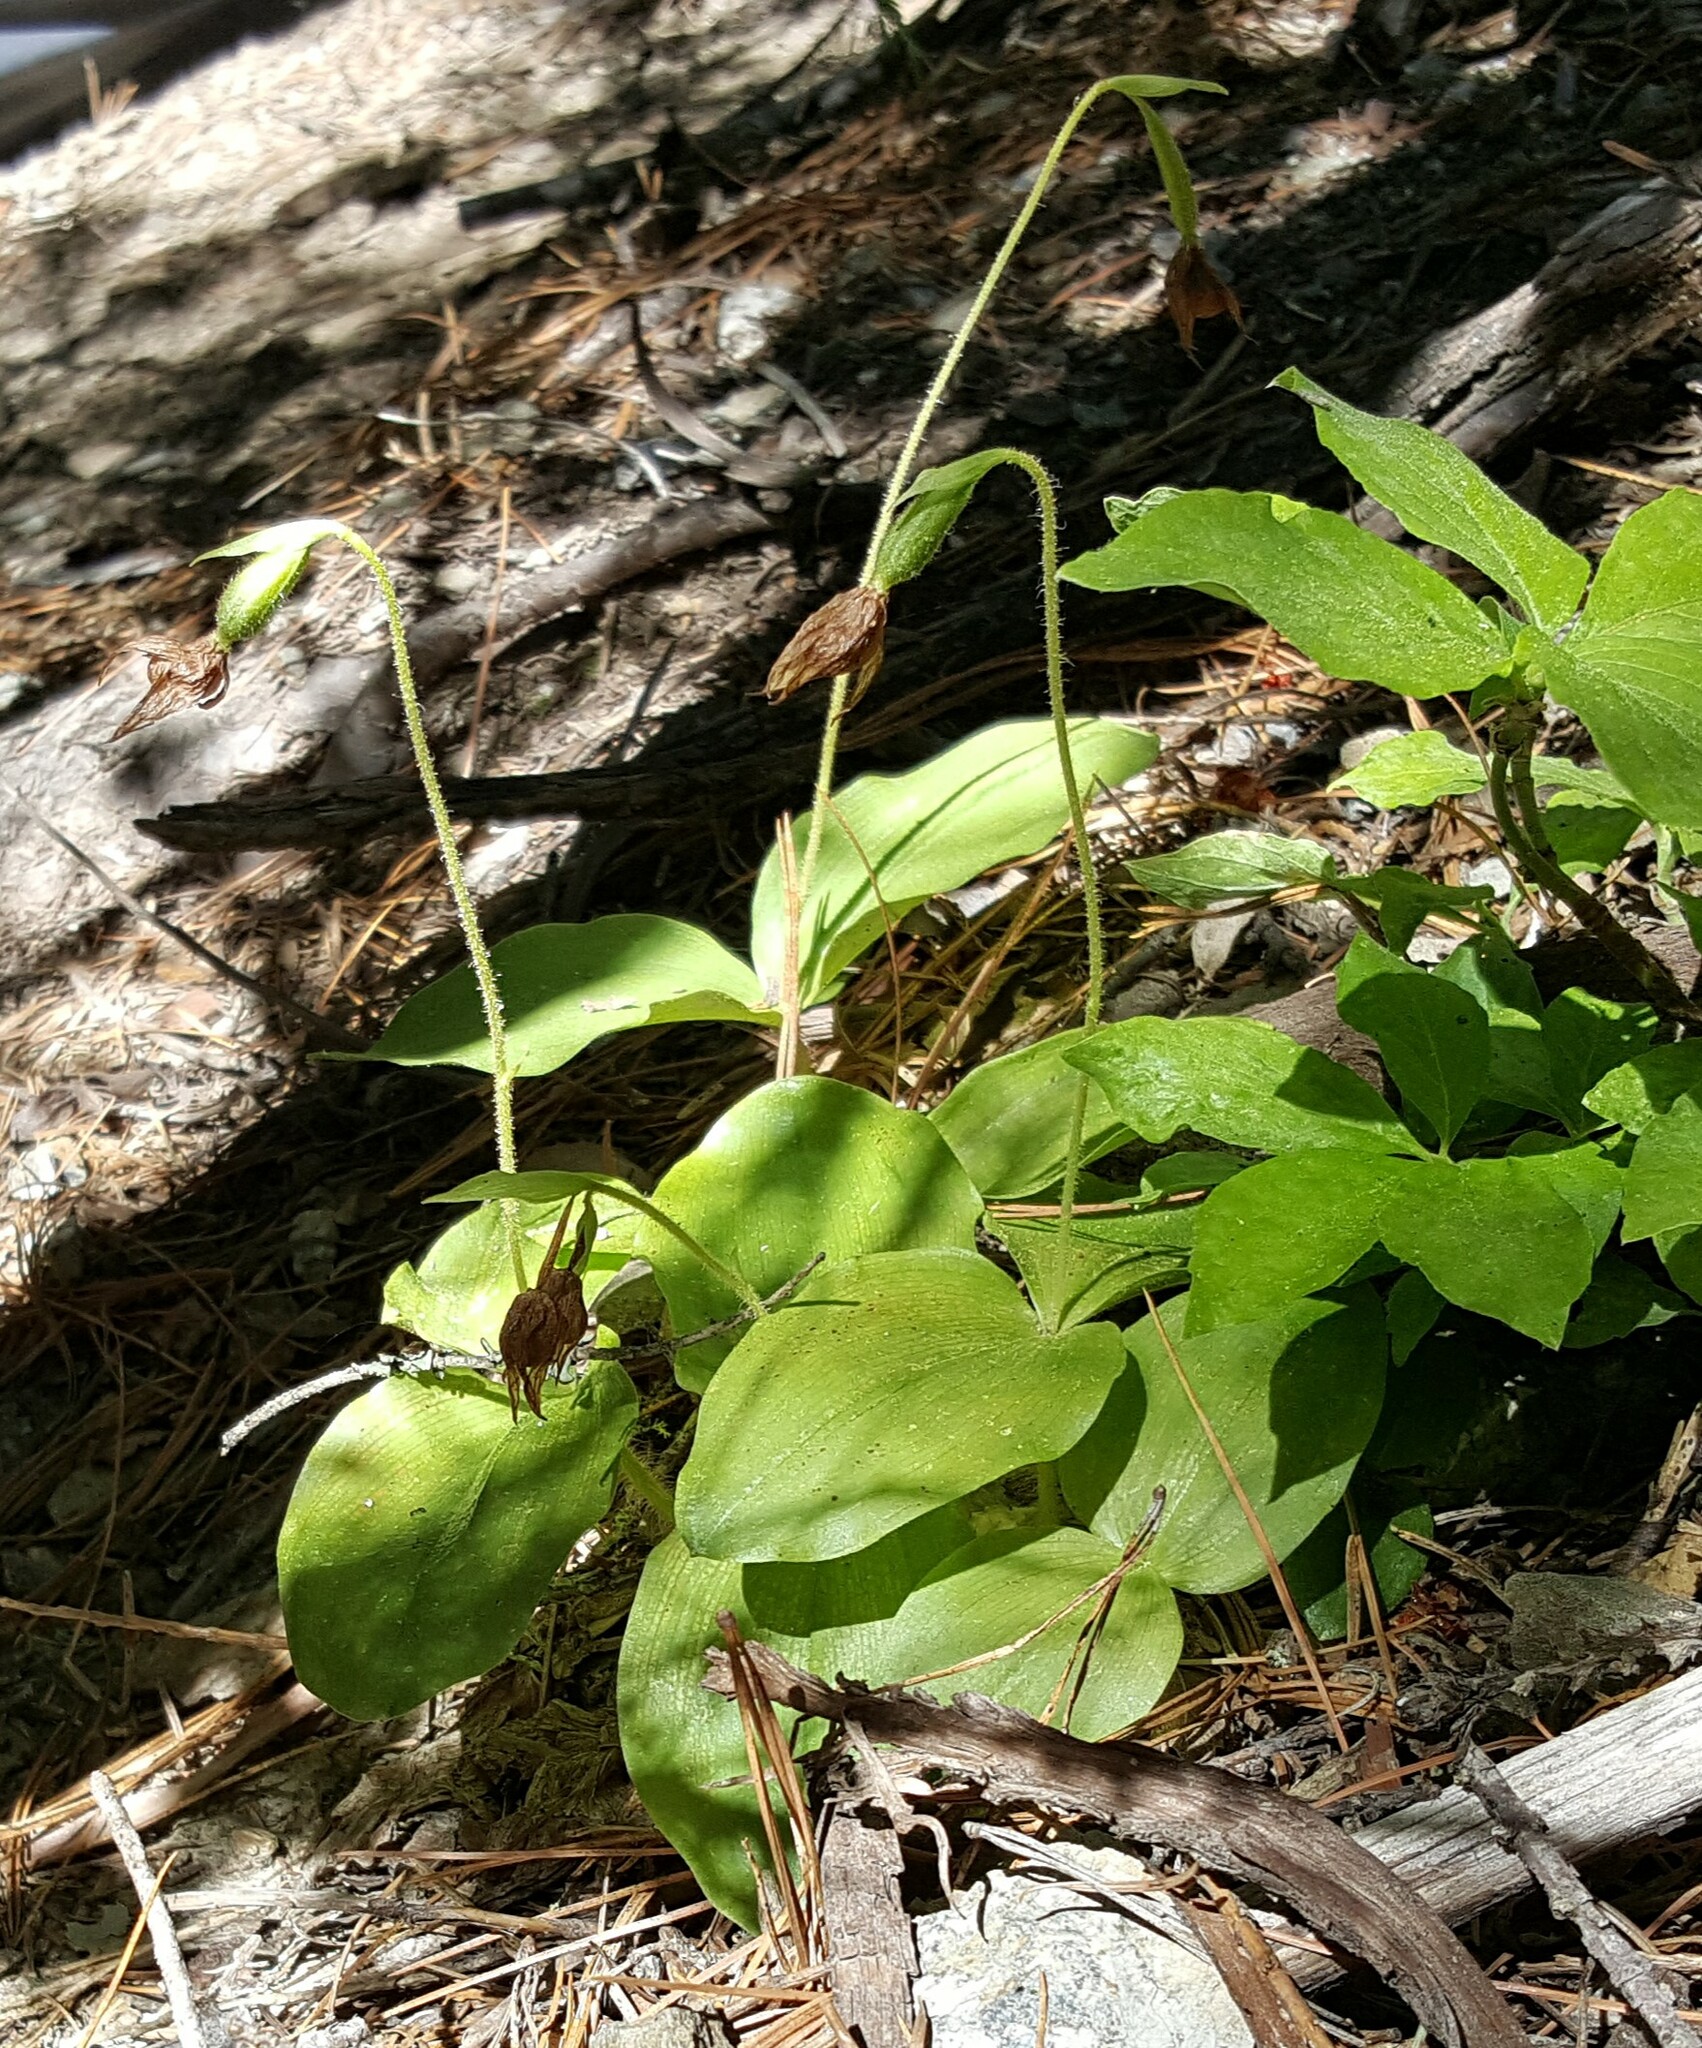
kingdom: Plantae
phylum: Tracheophyta
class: Liliopsida
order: Asparagales
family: Orchidaceae
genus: Cypripedium
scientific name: Cypripedium fasciculatum
